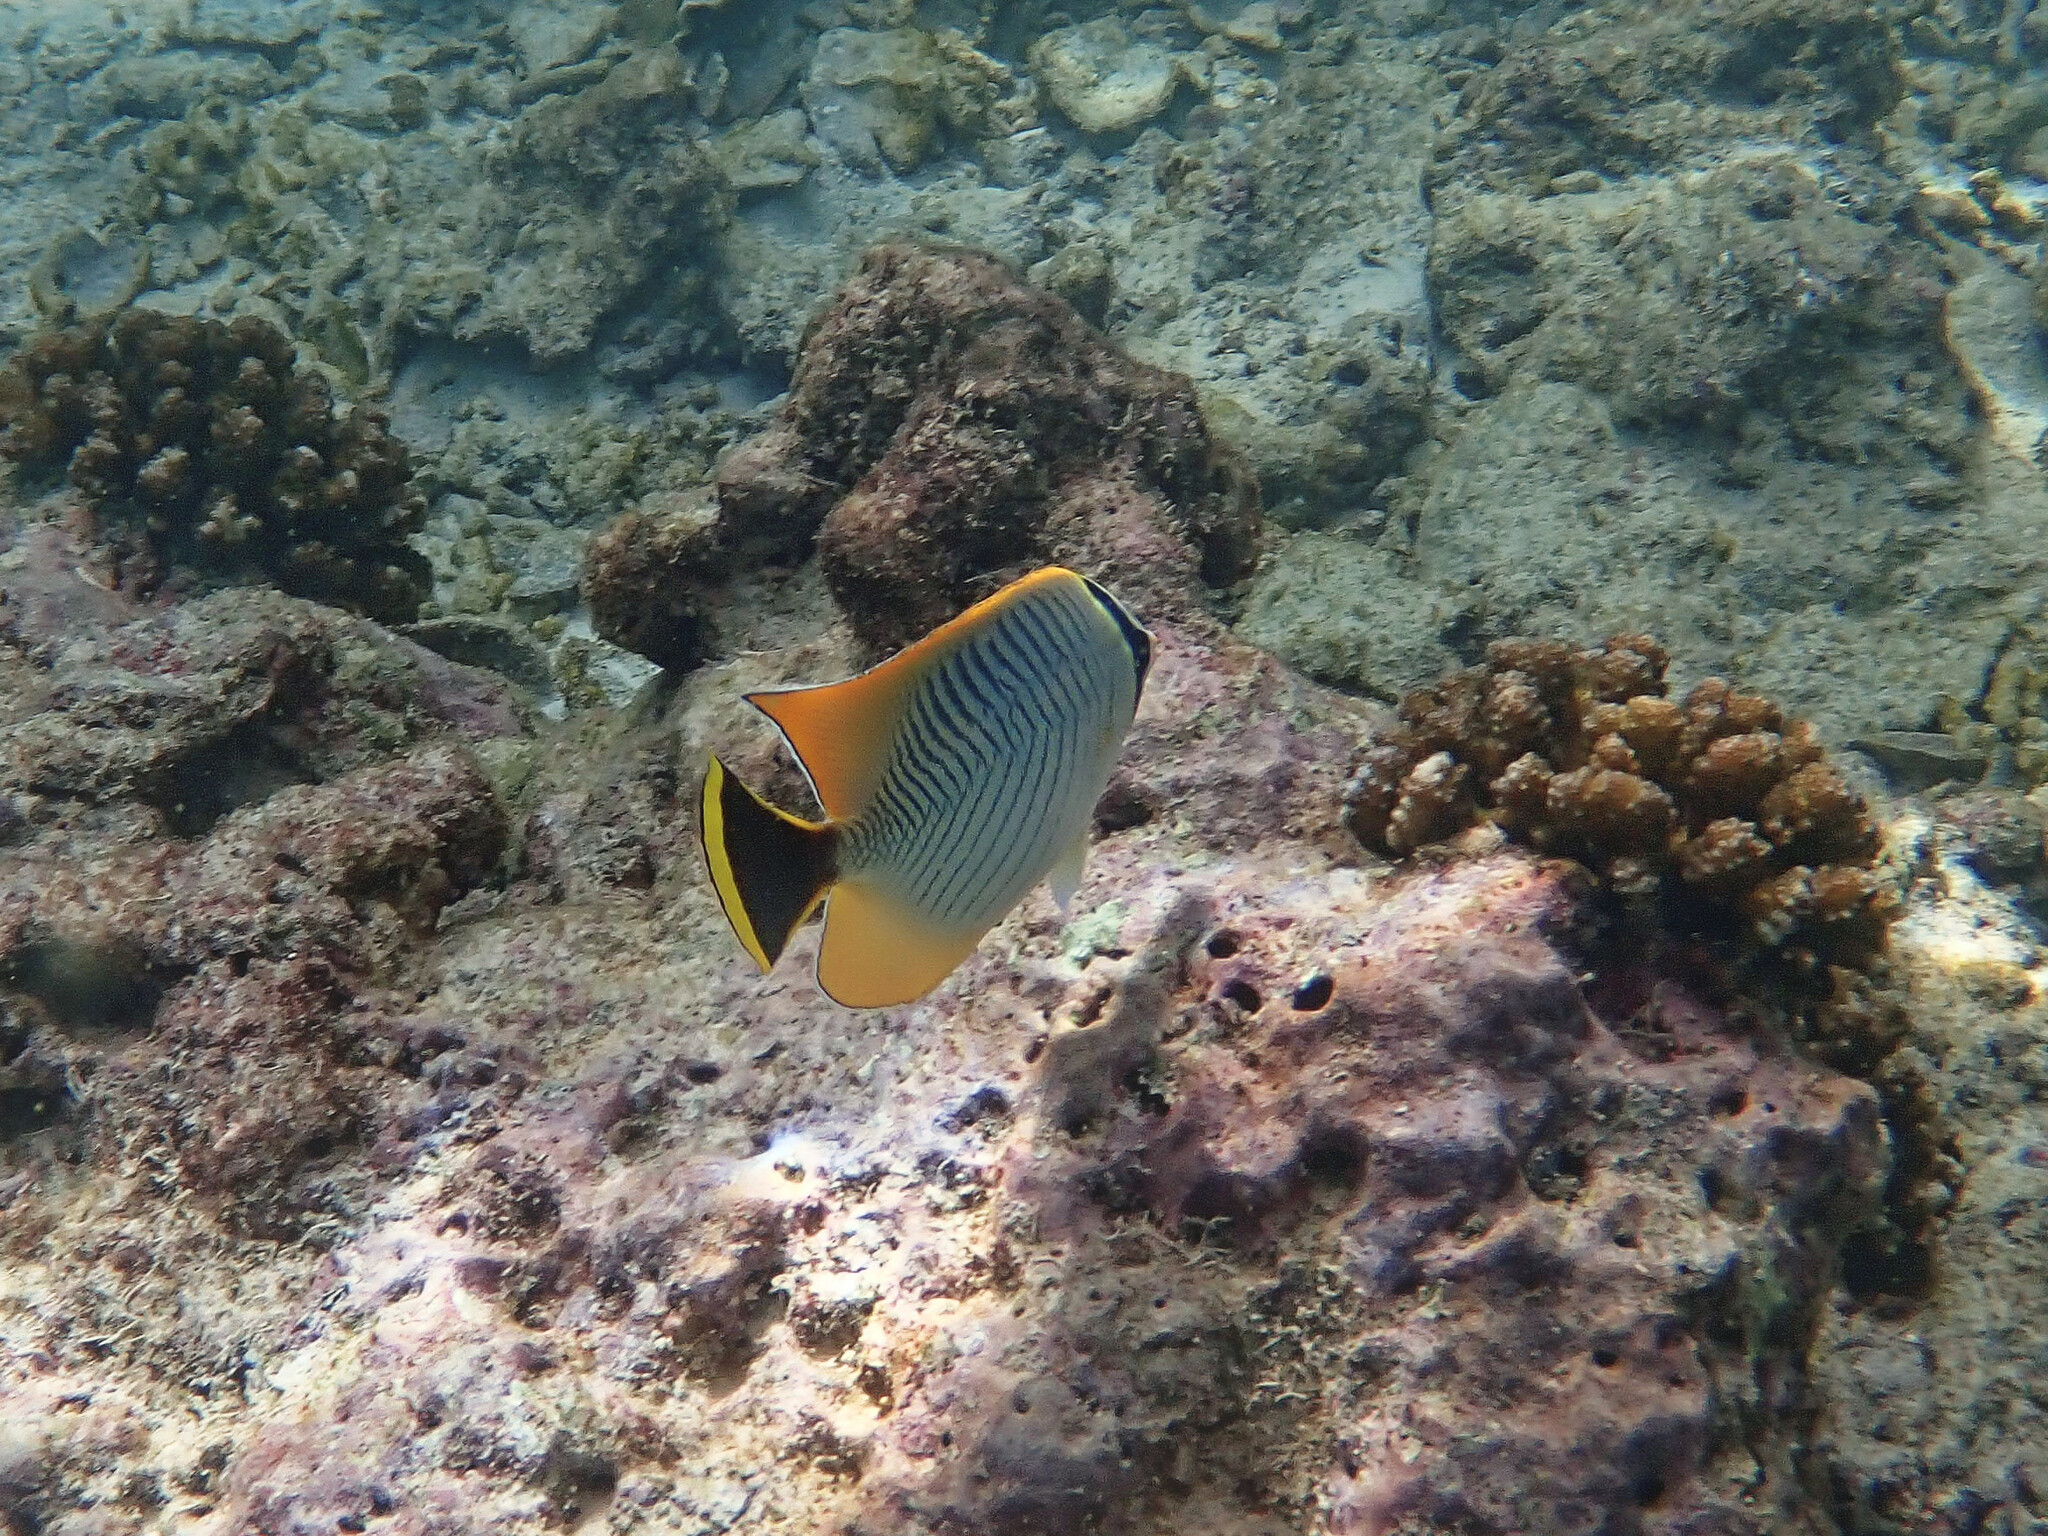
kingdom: Animalia
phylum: Chordata
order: Perciformes
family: Chaetodontidae
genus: Chaetodon
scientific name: Chaetodon trifascialis
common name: Chevroned butterflyfish
